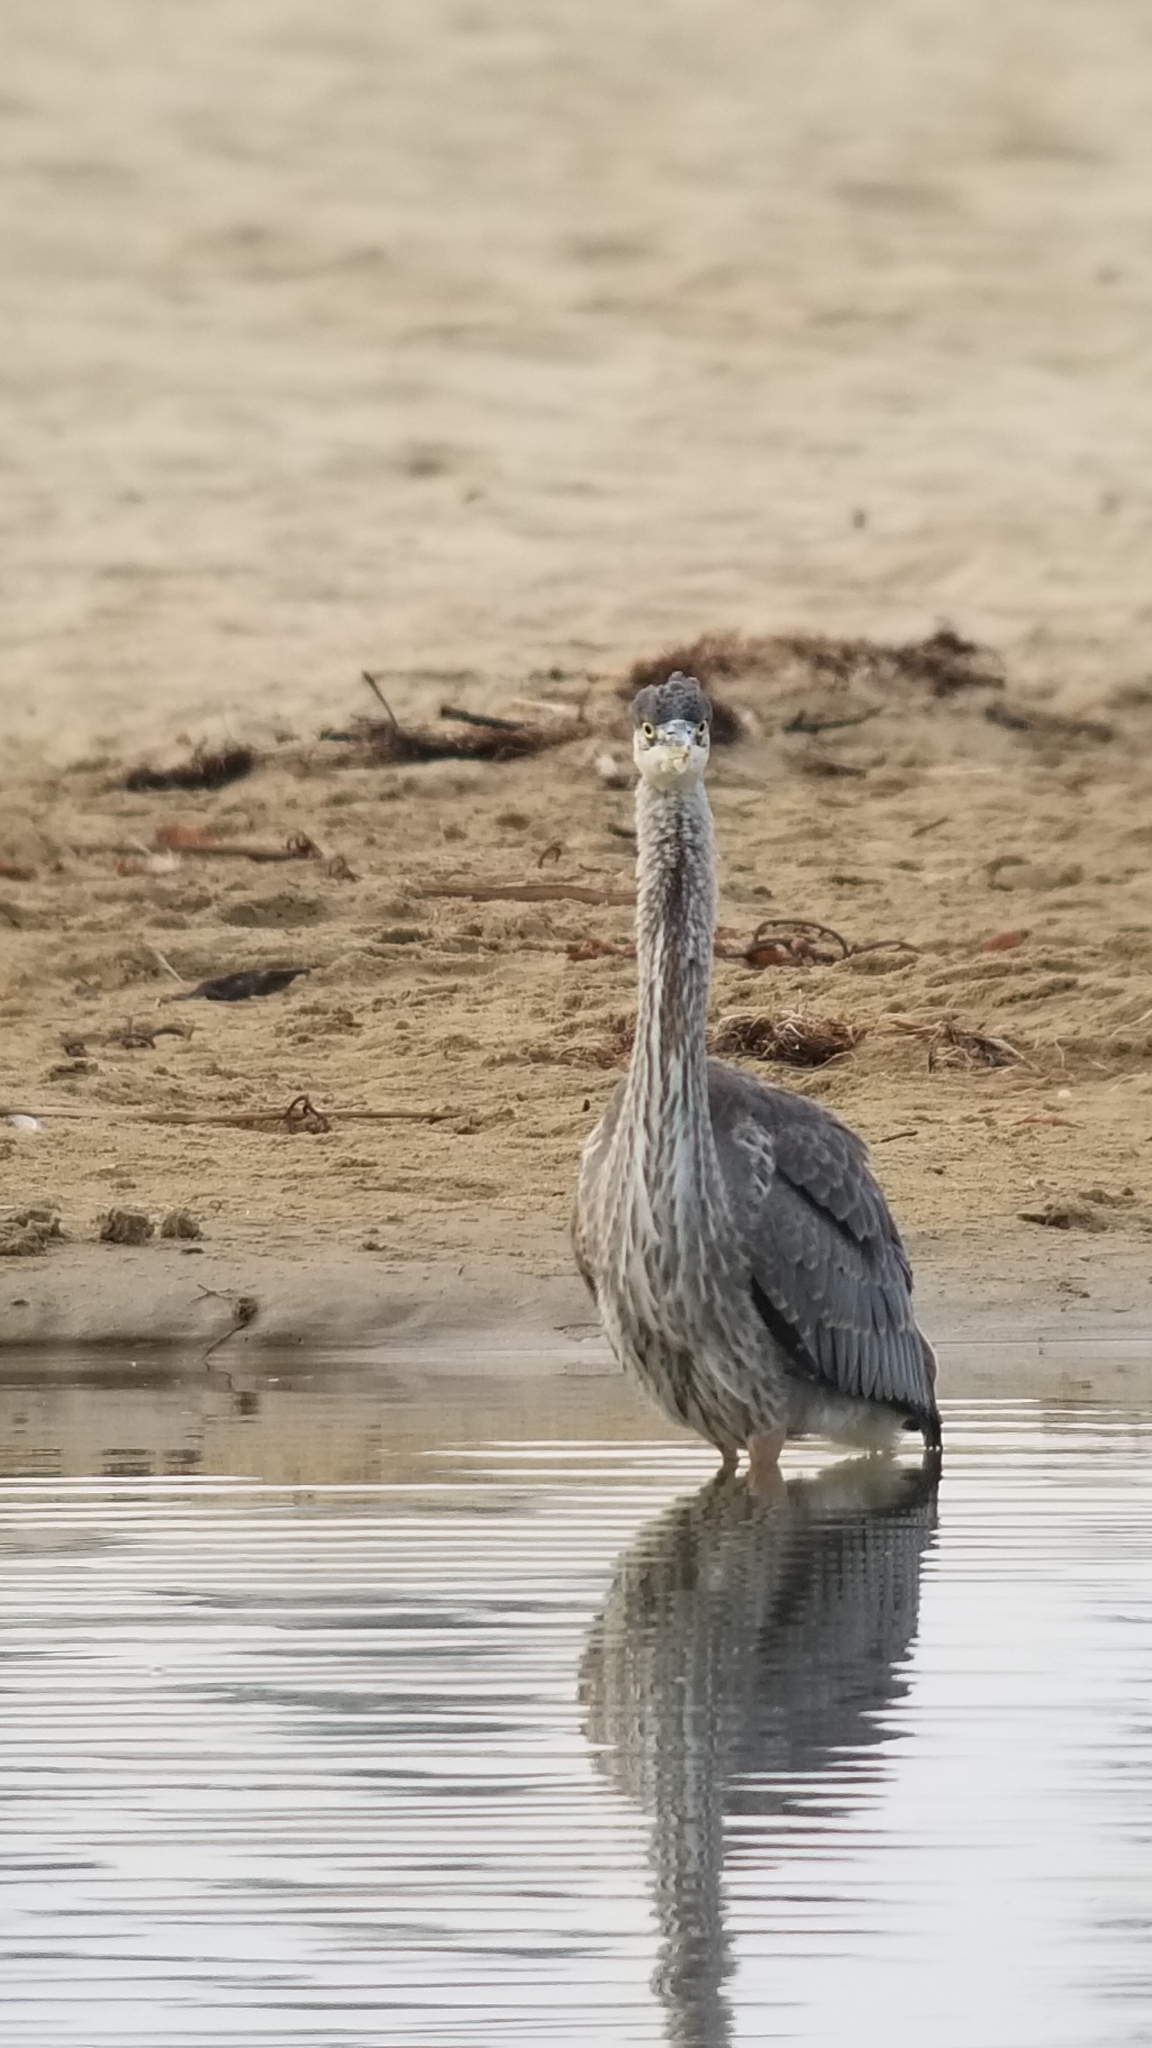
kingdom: Animalia
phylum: Chordata
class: Aves
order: Pelecaniformes
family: Ardeidae
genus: Ardea
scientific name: Ardea herodias
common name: Great blue heron
